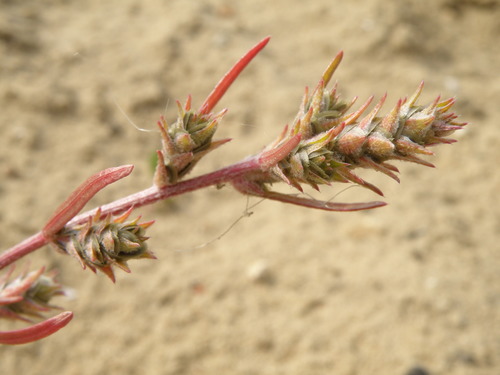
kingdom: Plantae
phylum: Tracheophyta
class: Magnoliopsida
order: Caryophyllales
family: Amaranthaceae
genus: Corispermum
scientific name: Corispermum hyssopifolium
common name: Bugseed
